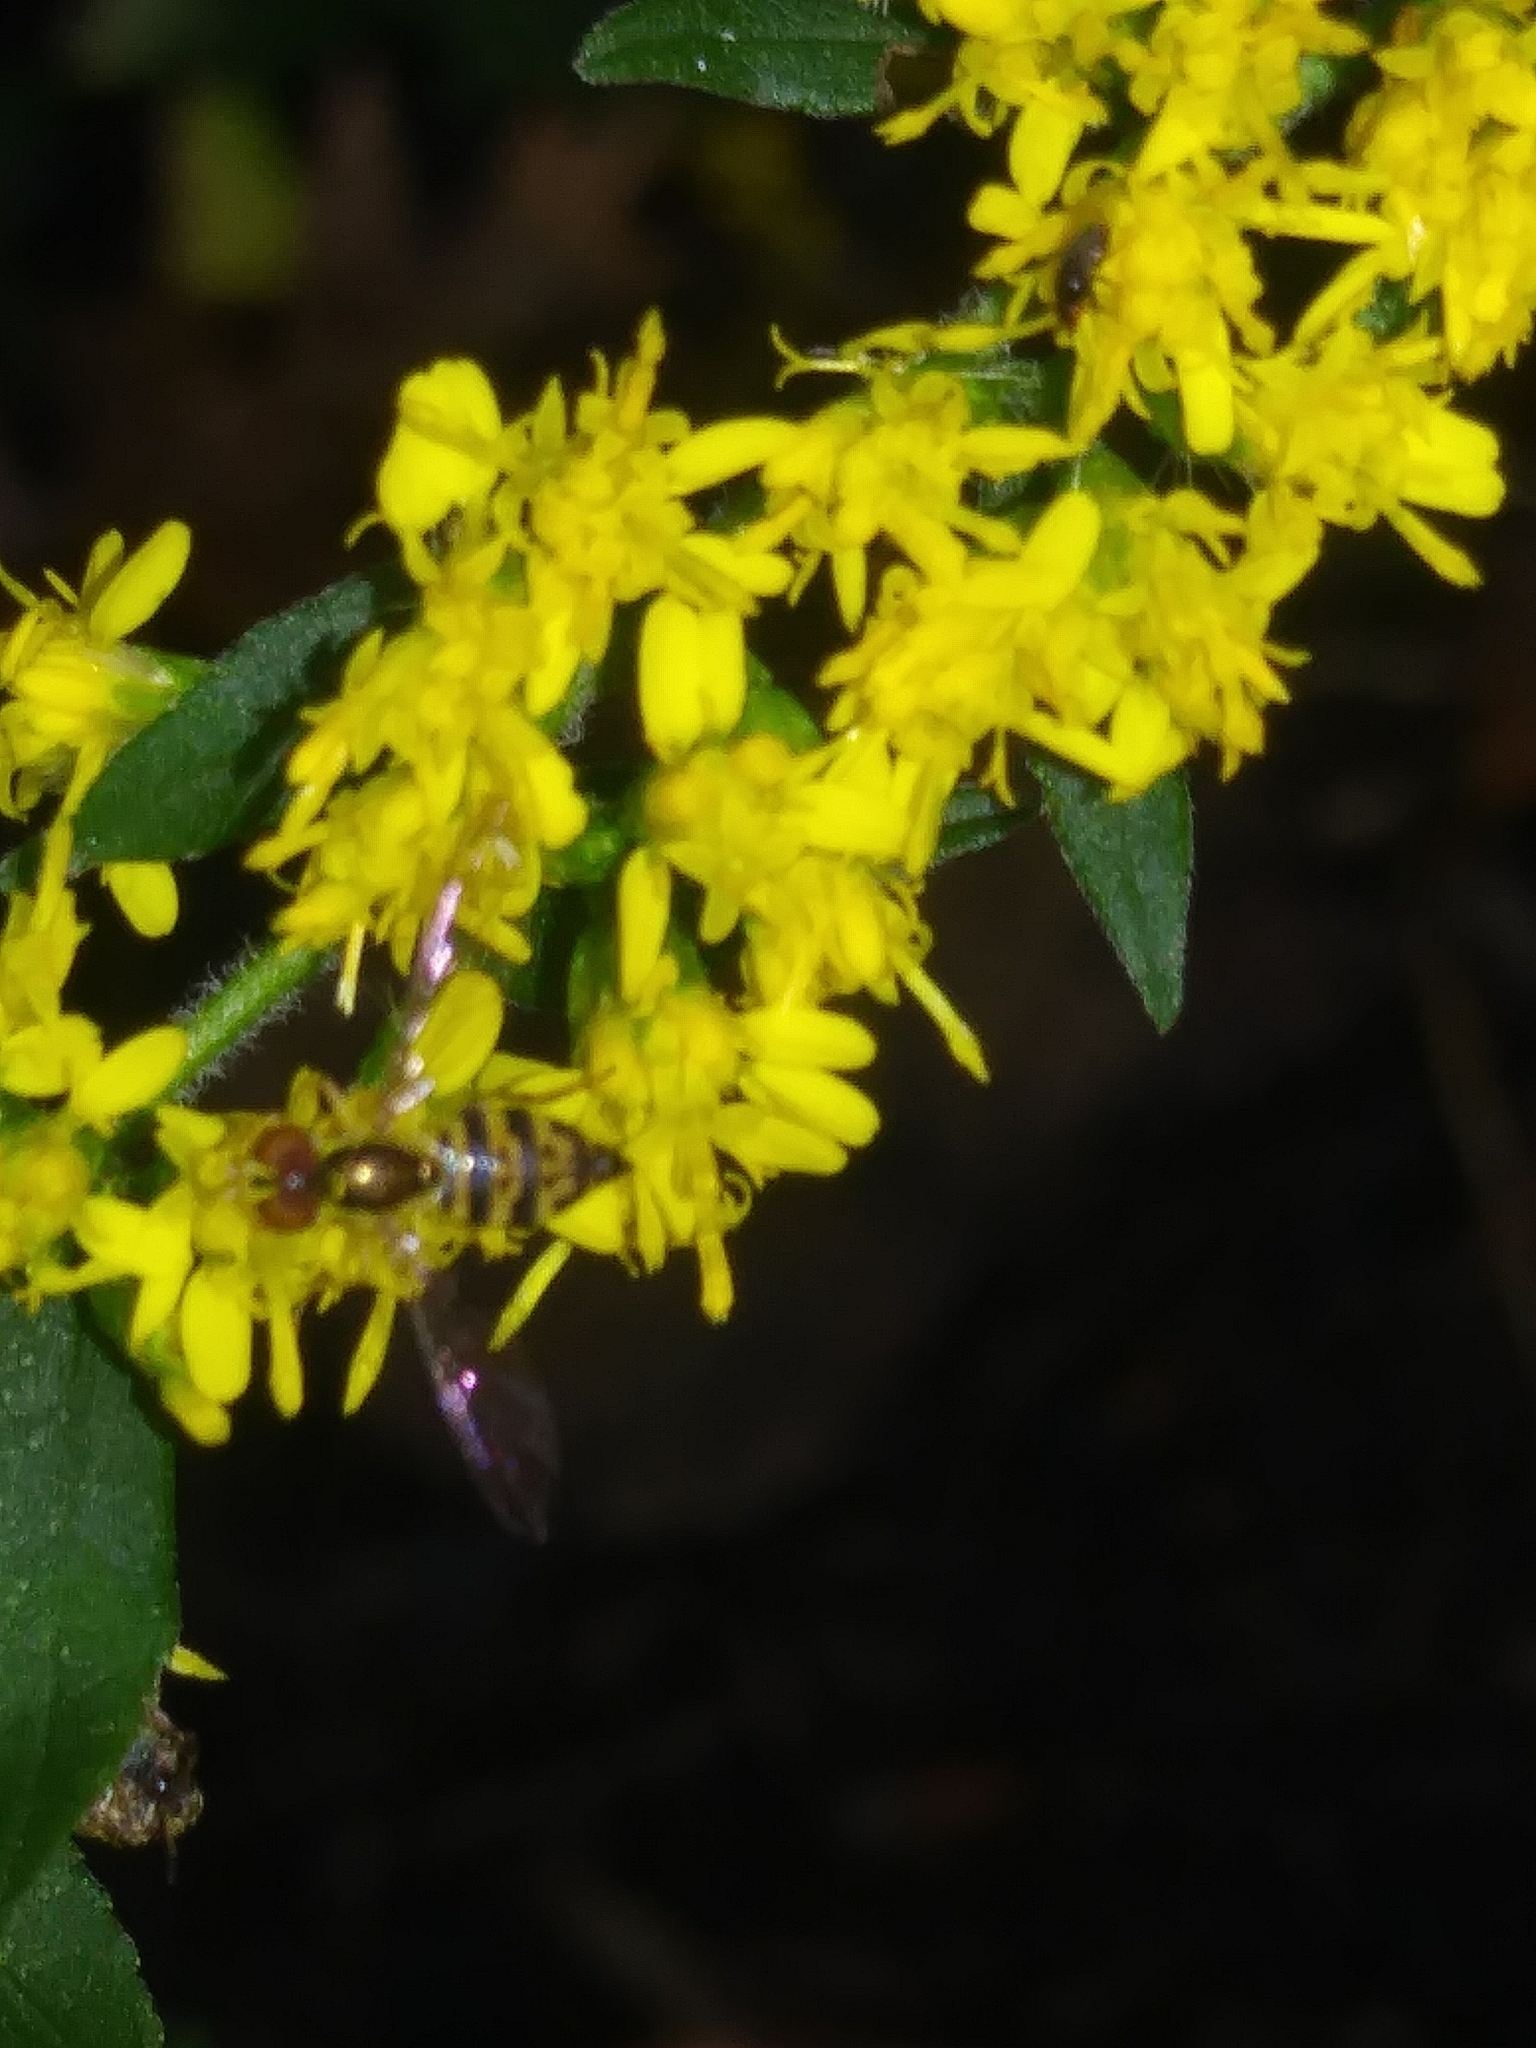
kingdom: Animalia
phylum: Arthropoda
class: Insecta
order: Diptera
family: Syrphidae
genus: Toxomerus
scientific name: Toxomerus geminatus
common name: Eastern calligrapher
